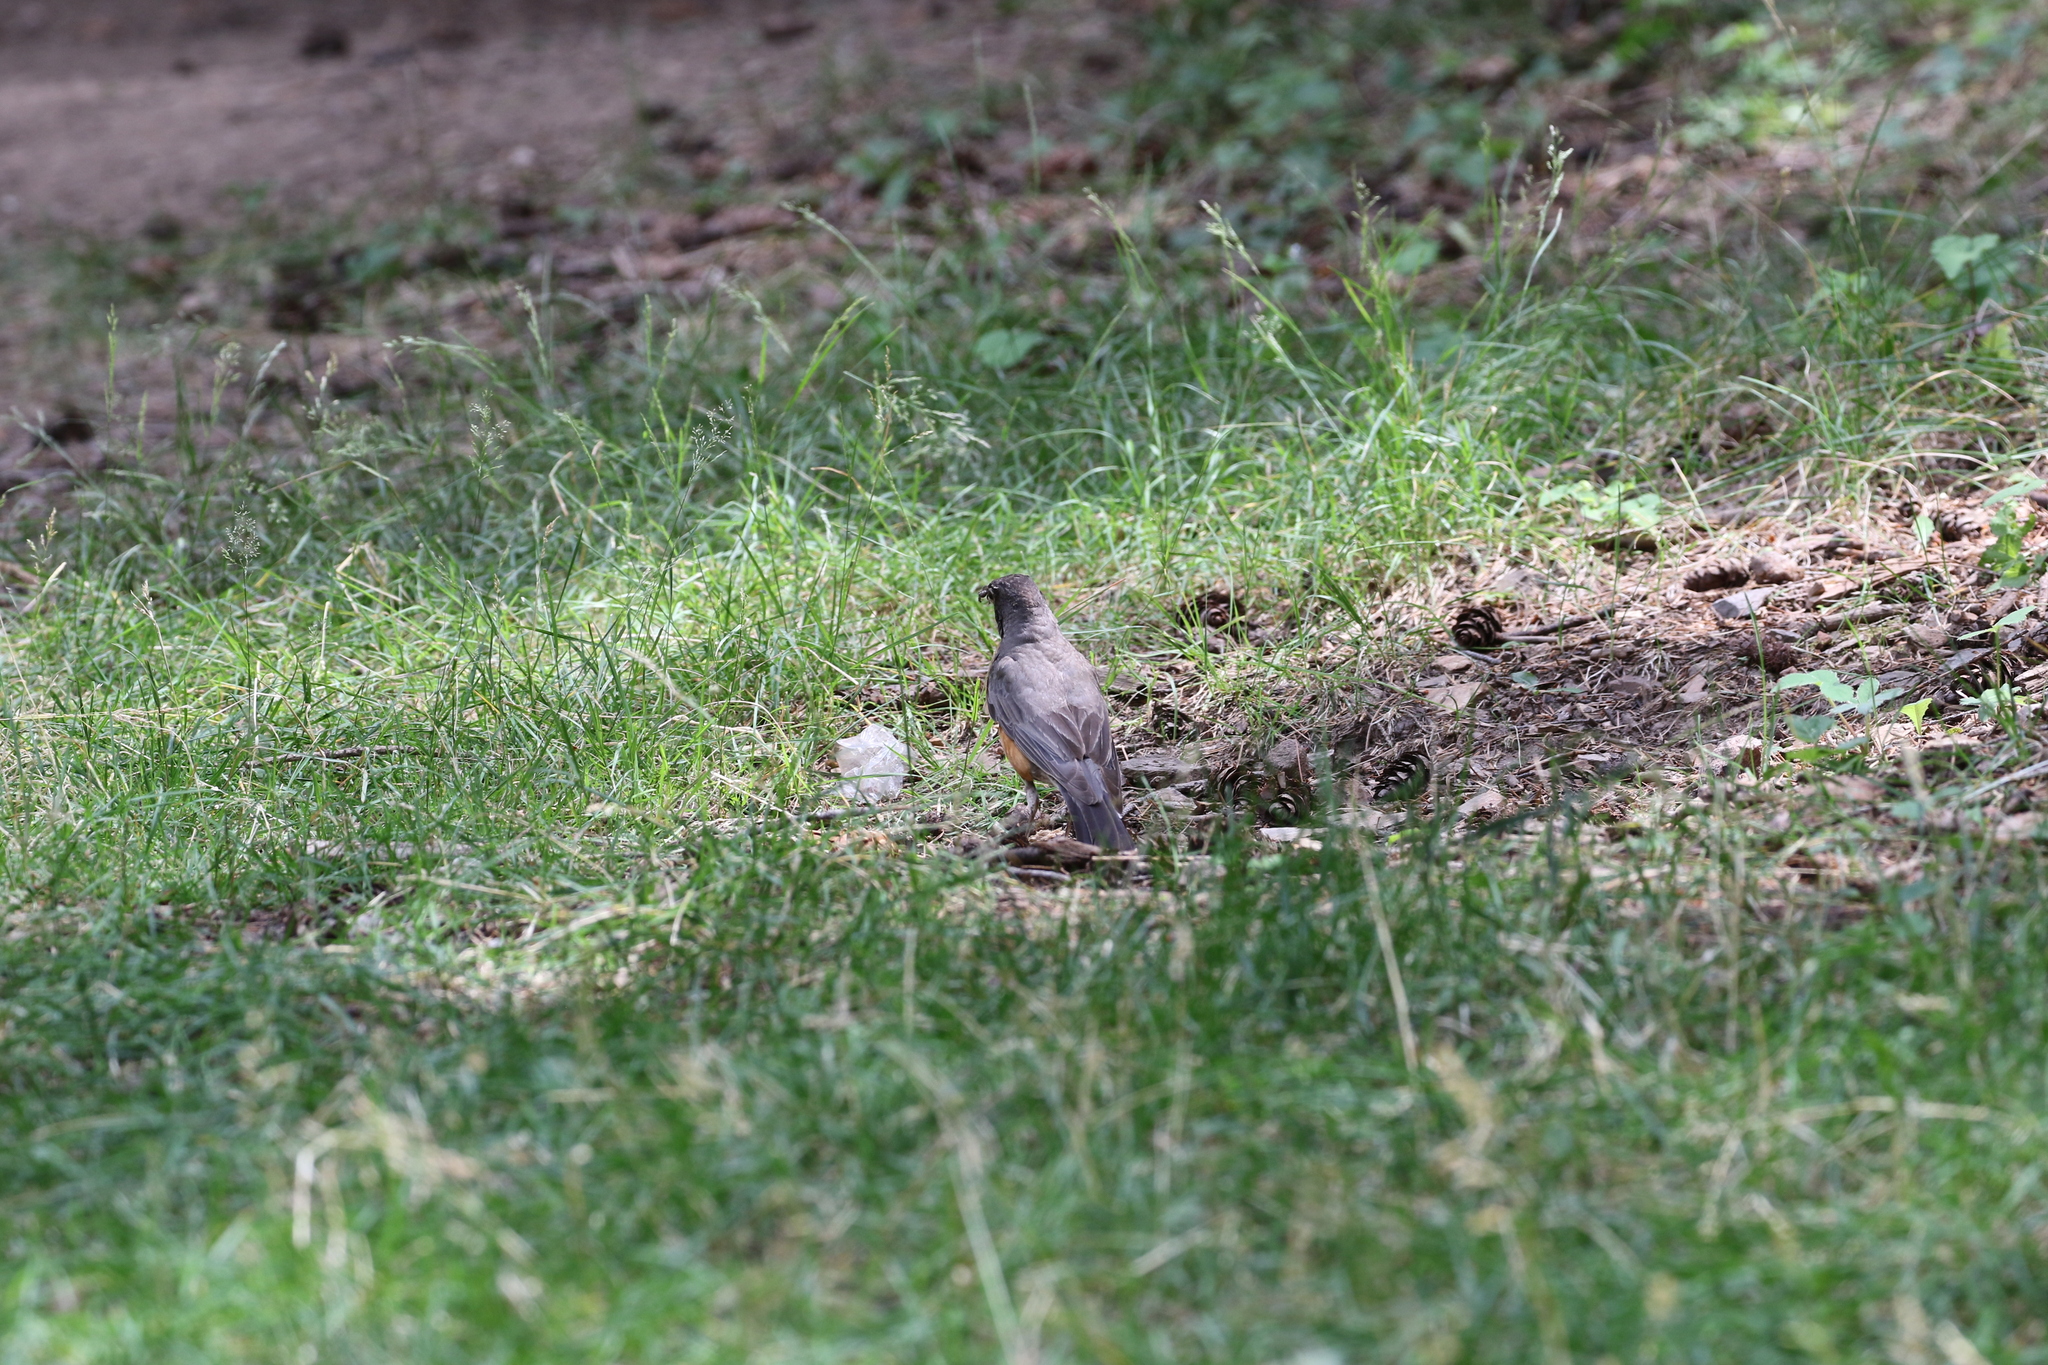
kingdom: Animalia
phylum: Chordata
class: Aves
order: Passeriformes
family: Turdidae
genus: Turdus
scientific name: Turdus migratorius
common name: American robin
